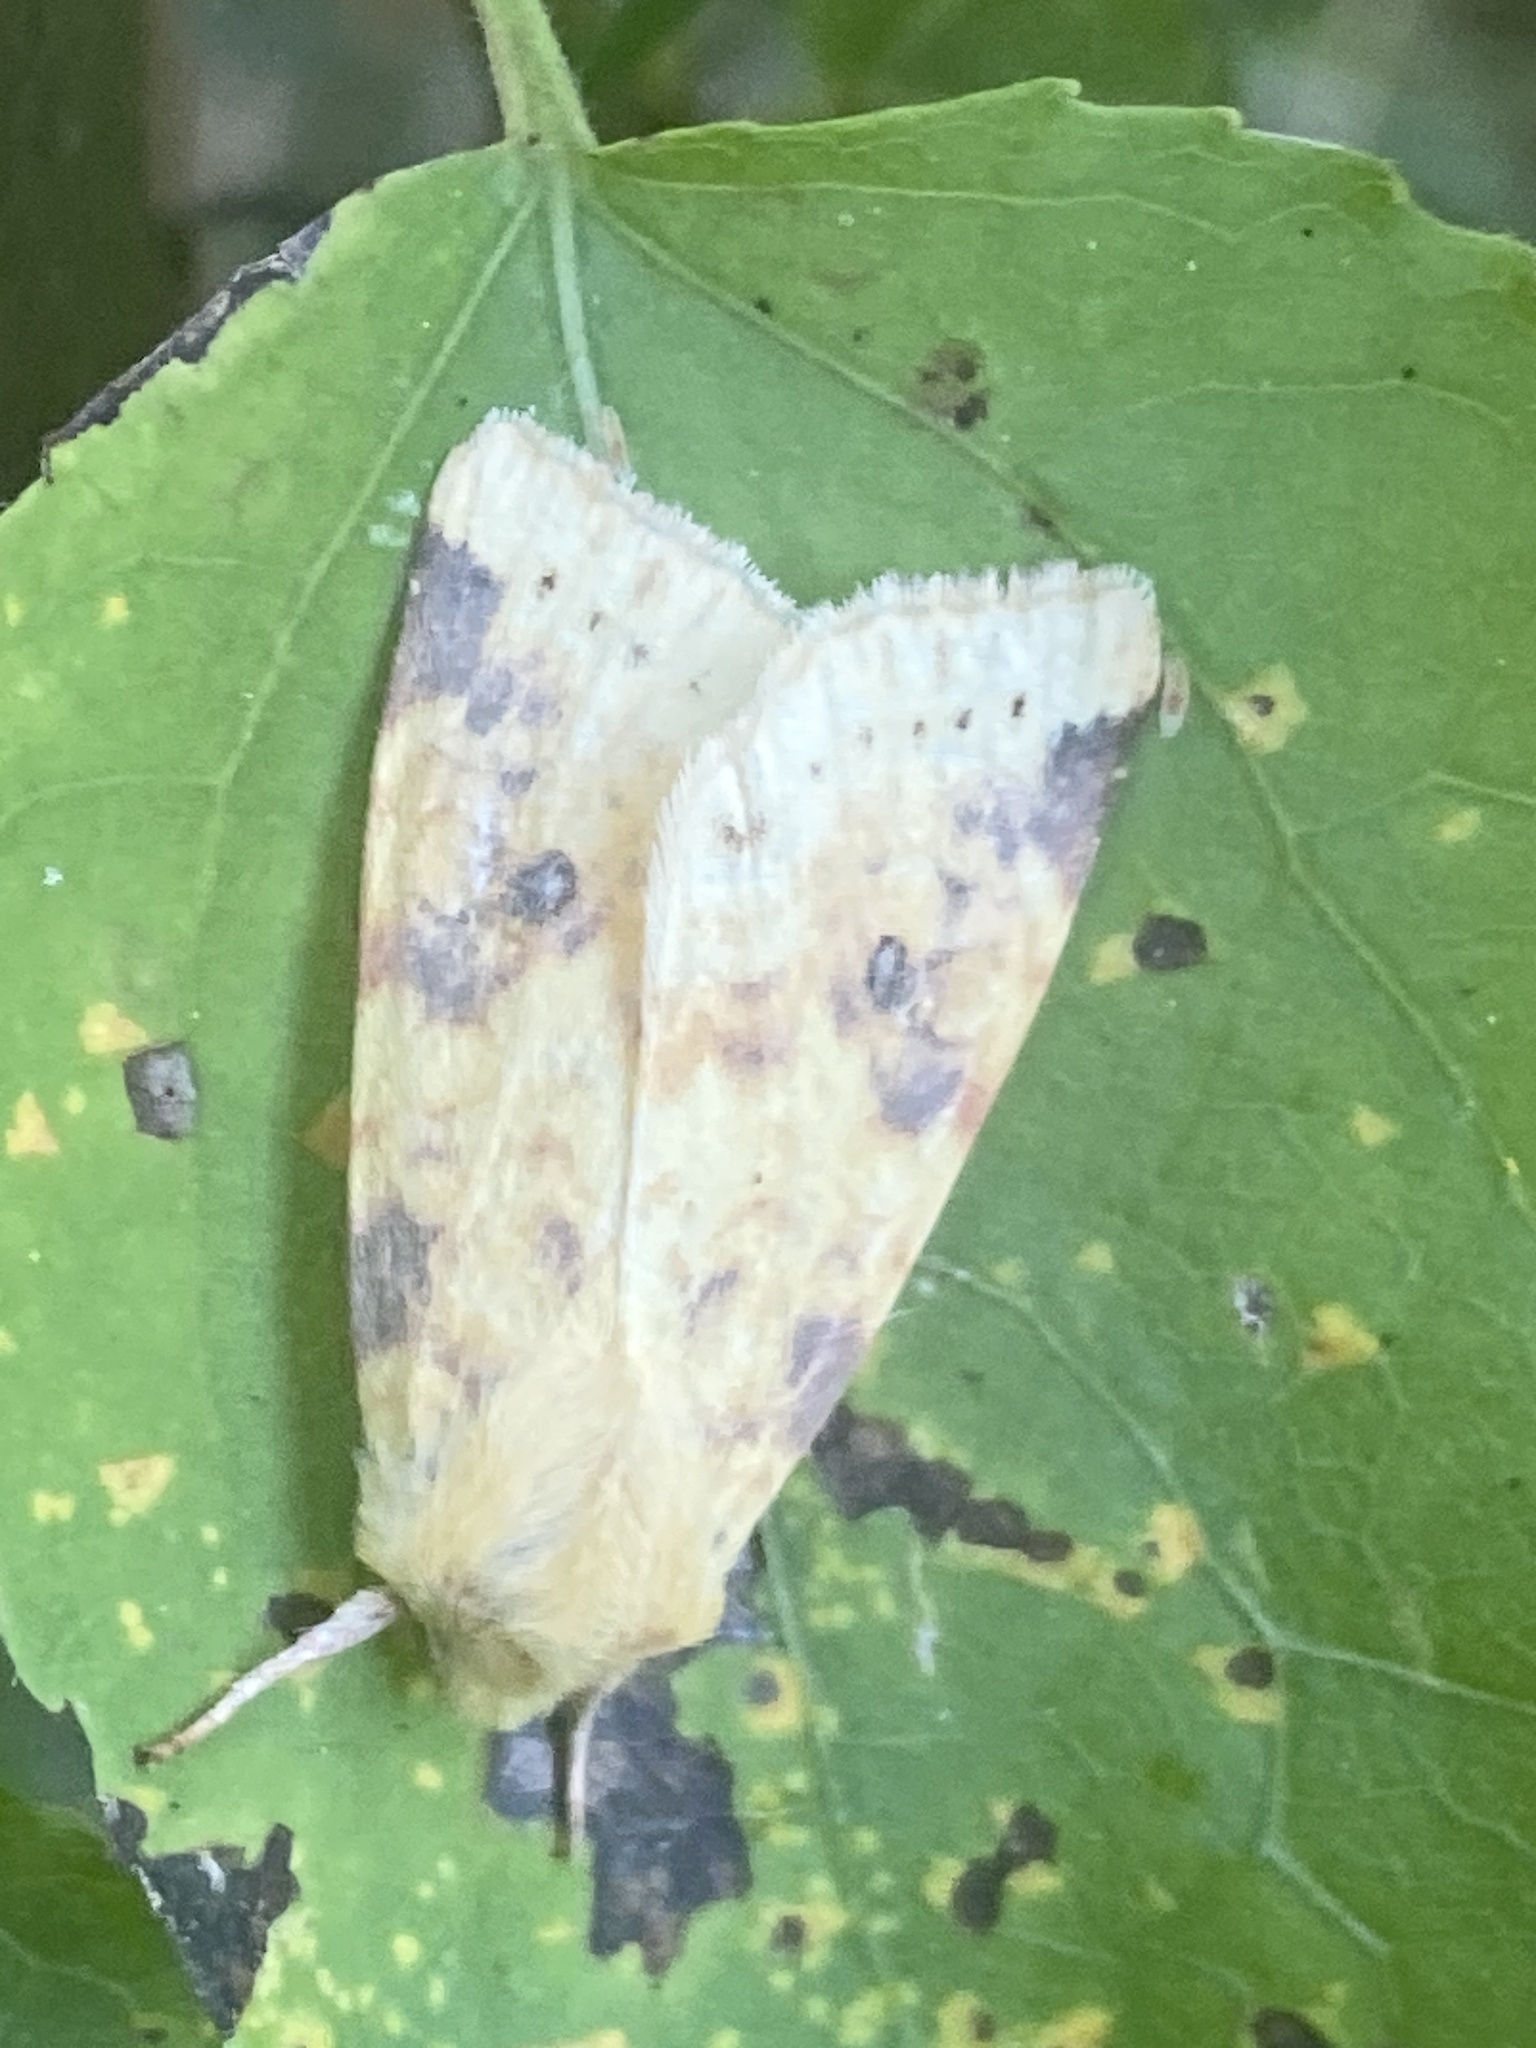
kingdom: Animalia
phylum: Arthropoda
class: Insecta
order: Lepidoptera
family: Noctuidae
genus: Xanthia
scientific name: Xanthia icteritia
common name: The sallow
